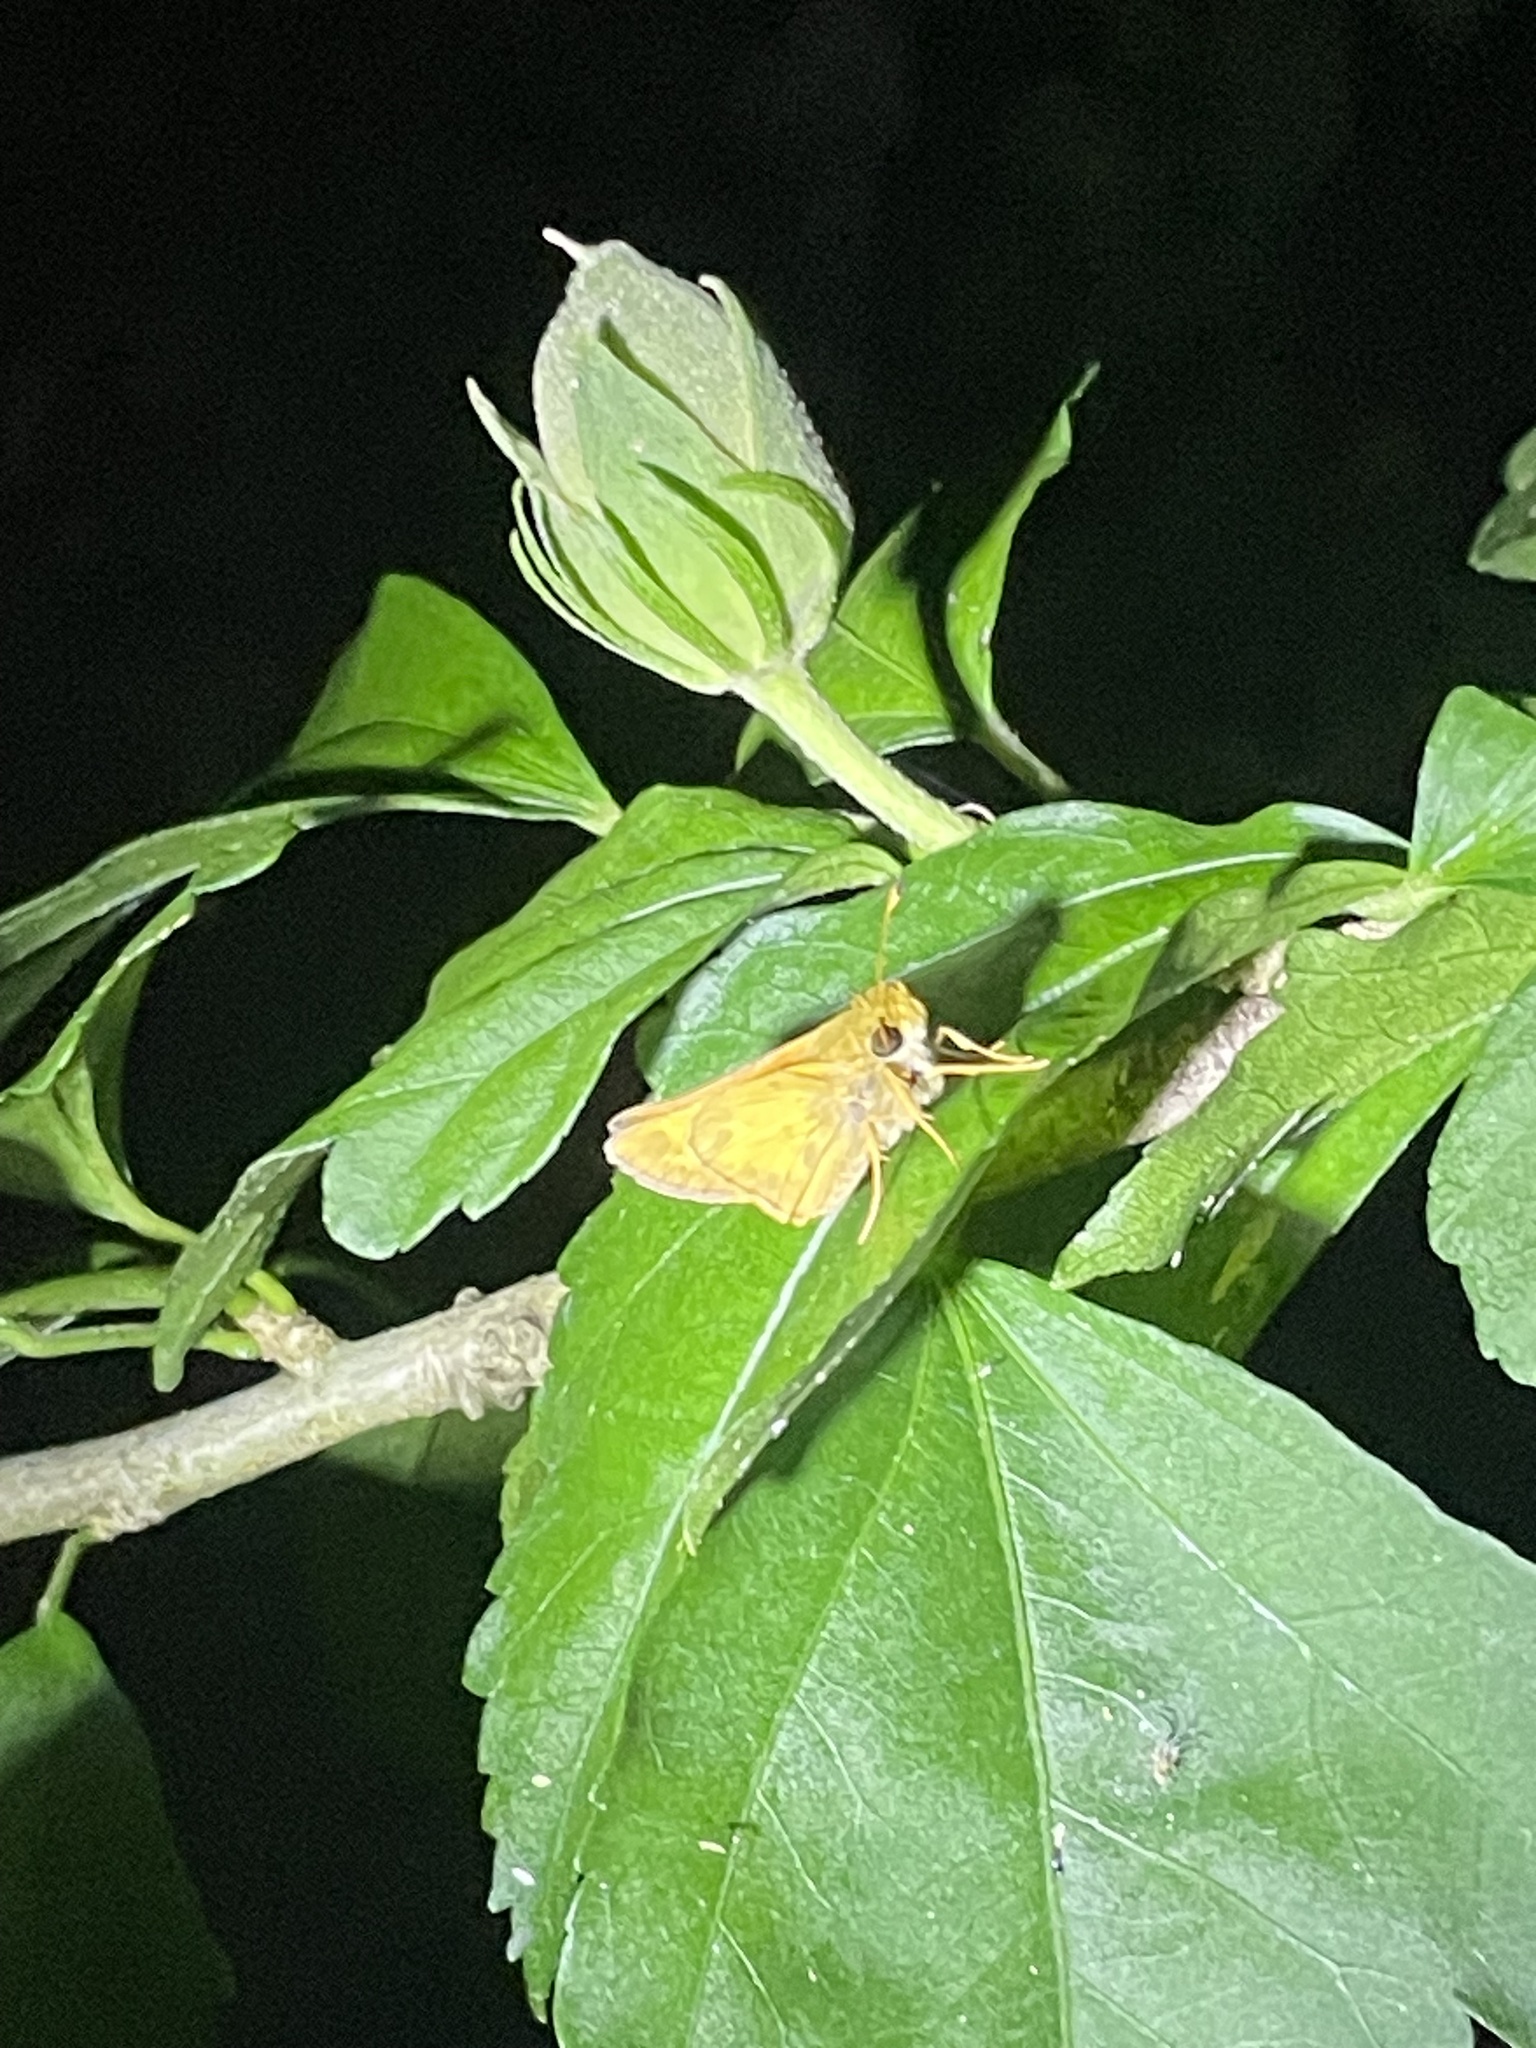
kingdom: Animalia
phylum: Arthropoda
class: Insecta
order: Lepidoptera
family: Hesperiidae
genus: Atalopedes
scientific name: Atalopedes
